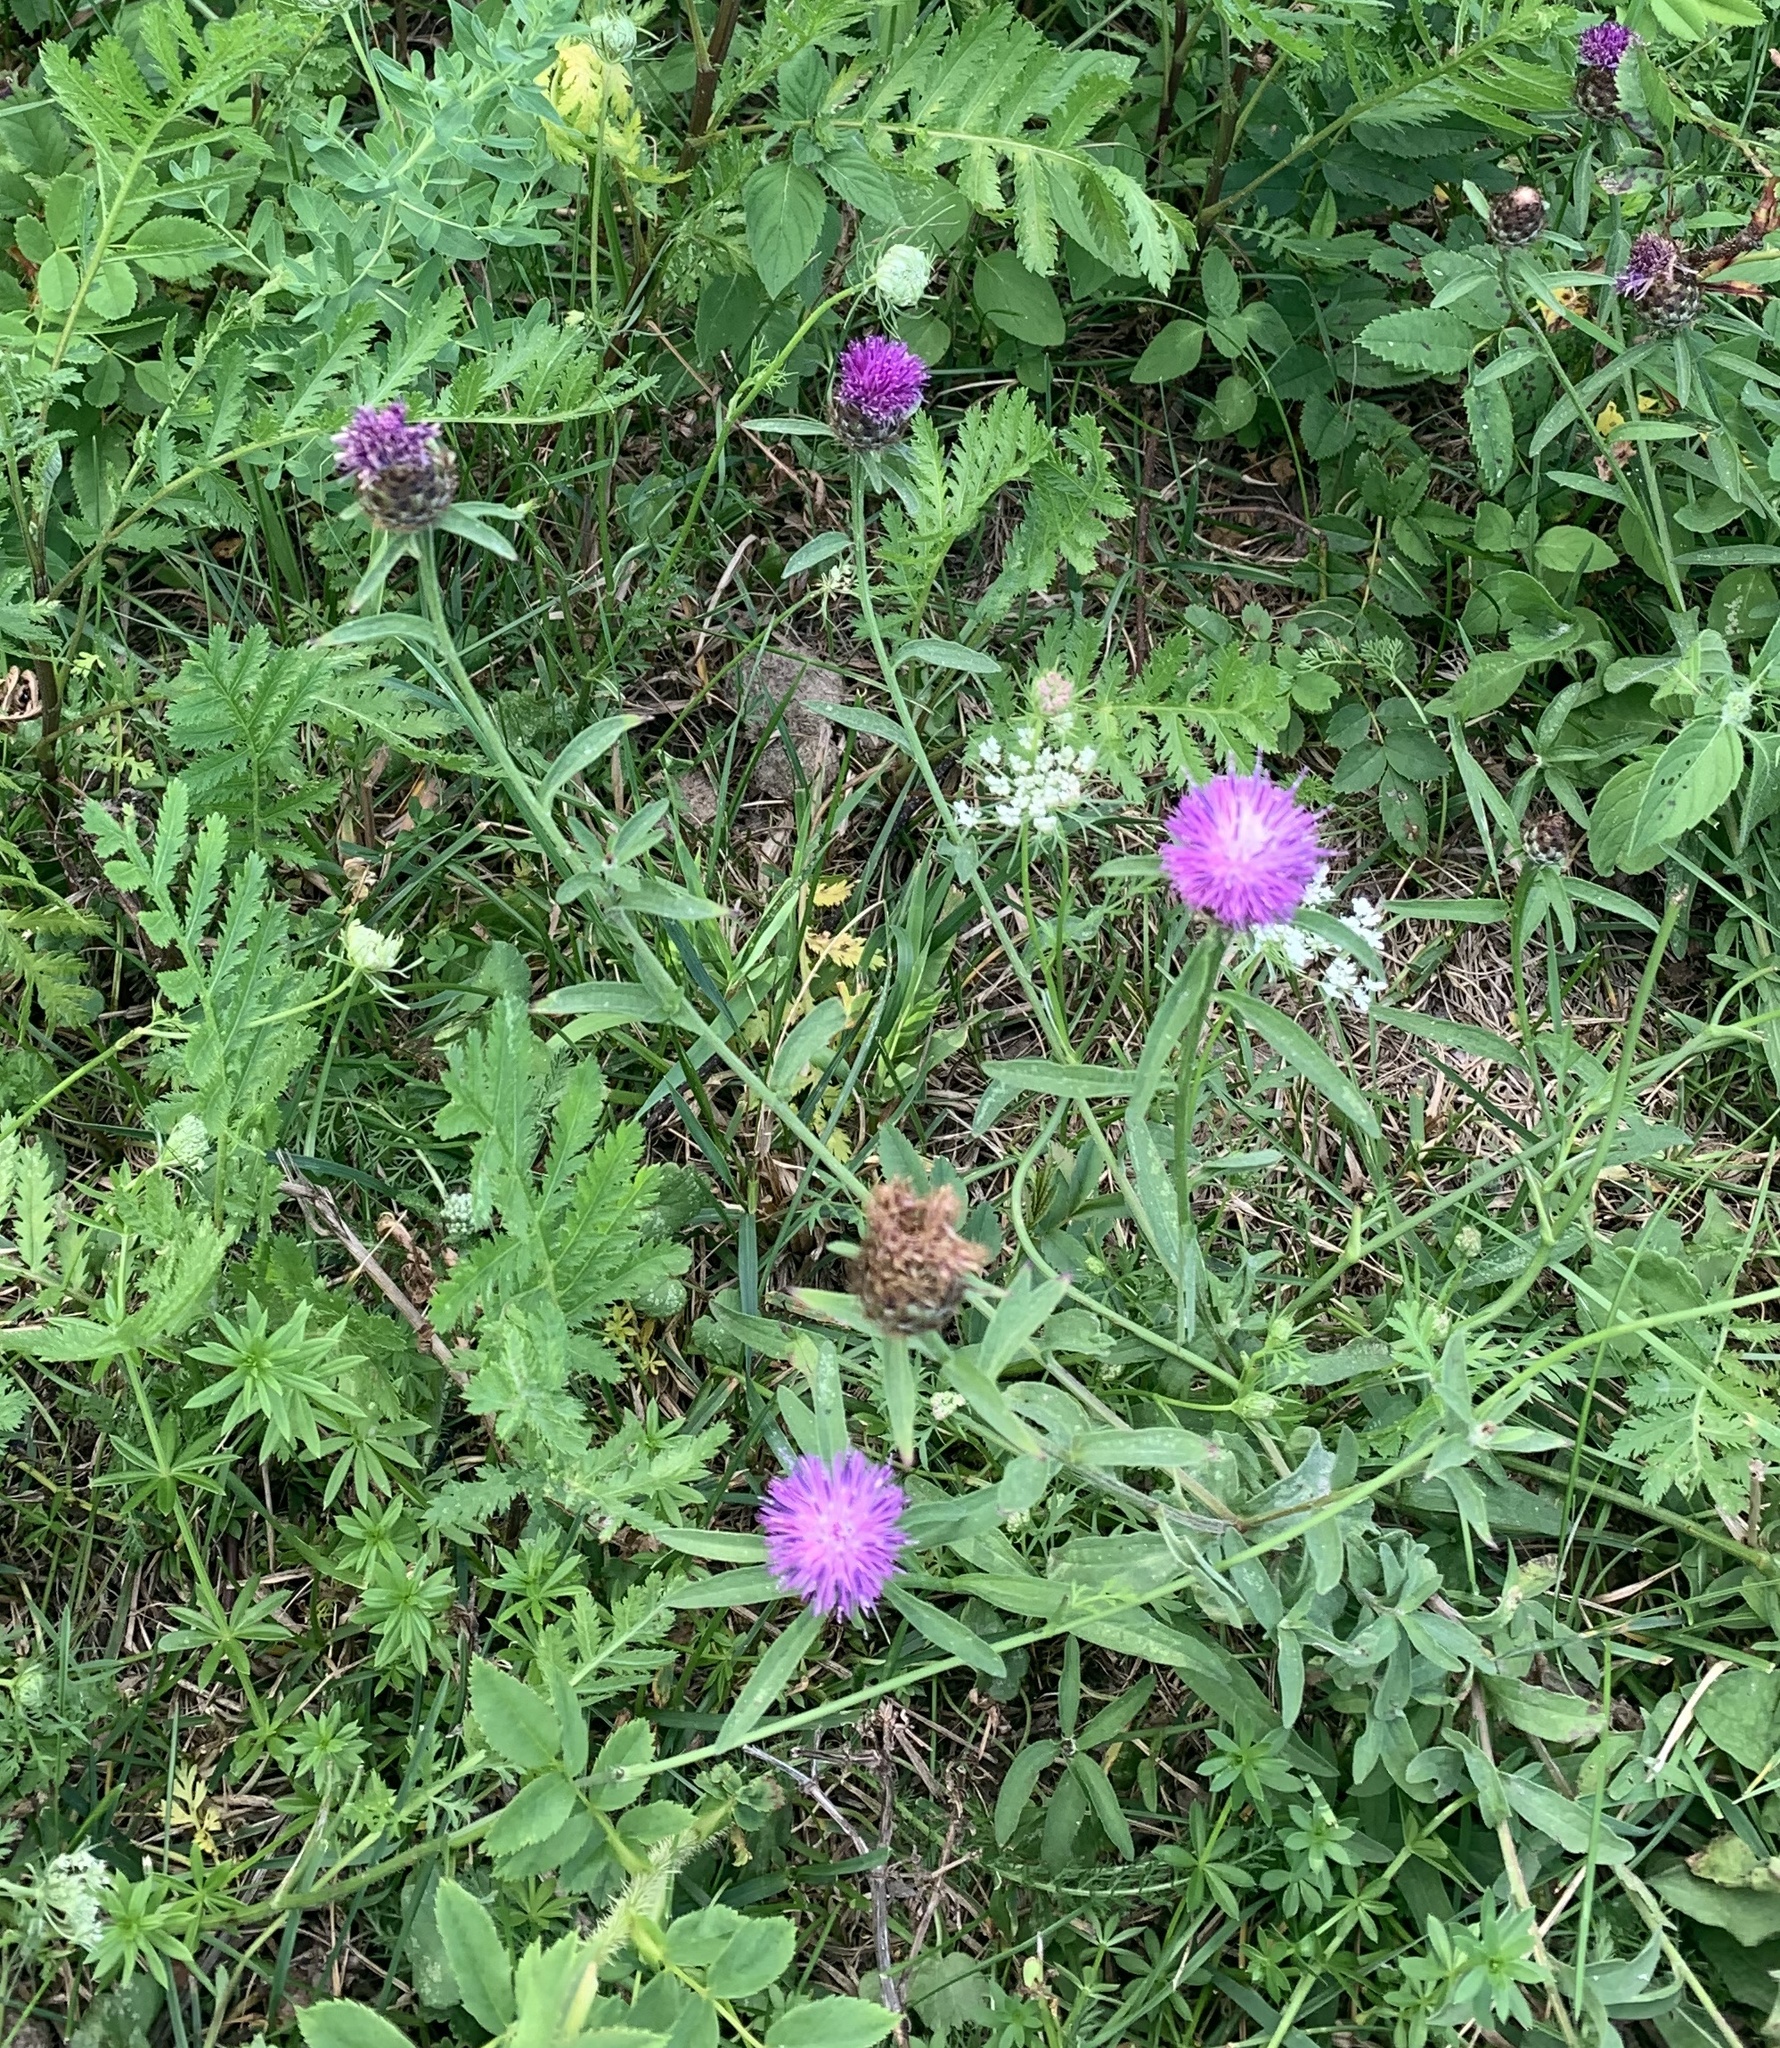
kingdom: Plantae
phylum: Tracheophyta
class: Magnoliopsida
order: Asterales
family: Asteraceae
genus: Centaurea
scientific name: Centaurea nigra
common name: Lesser knapweed
